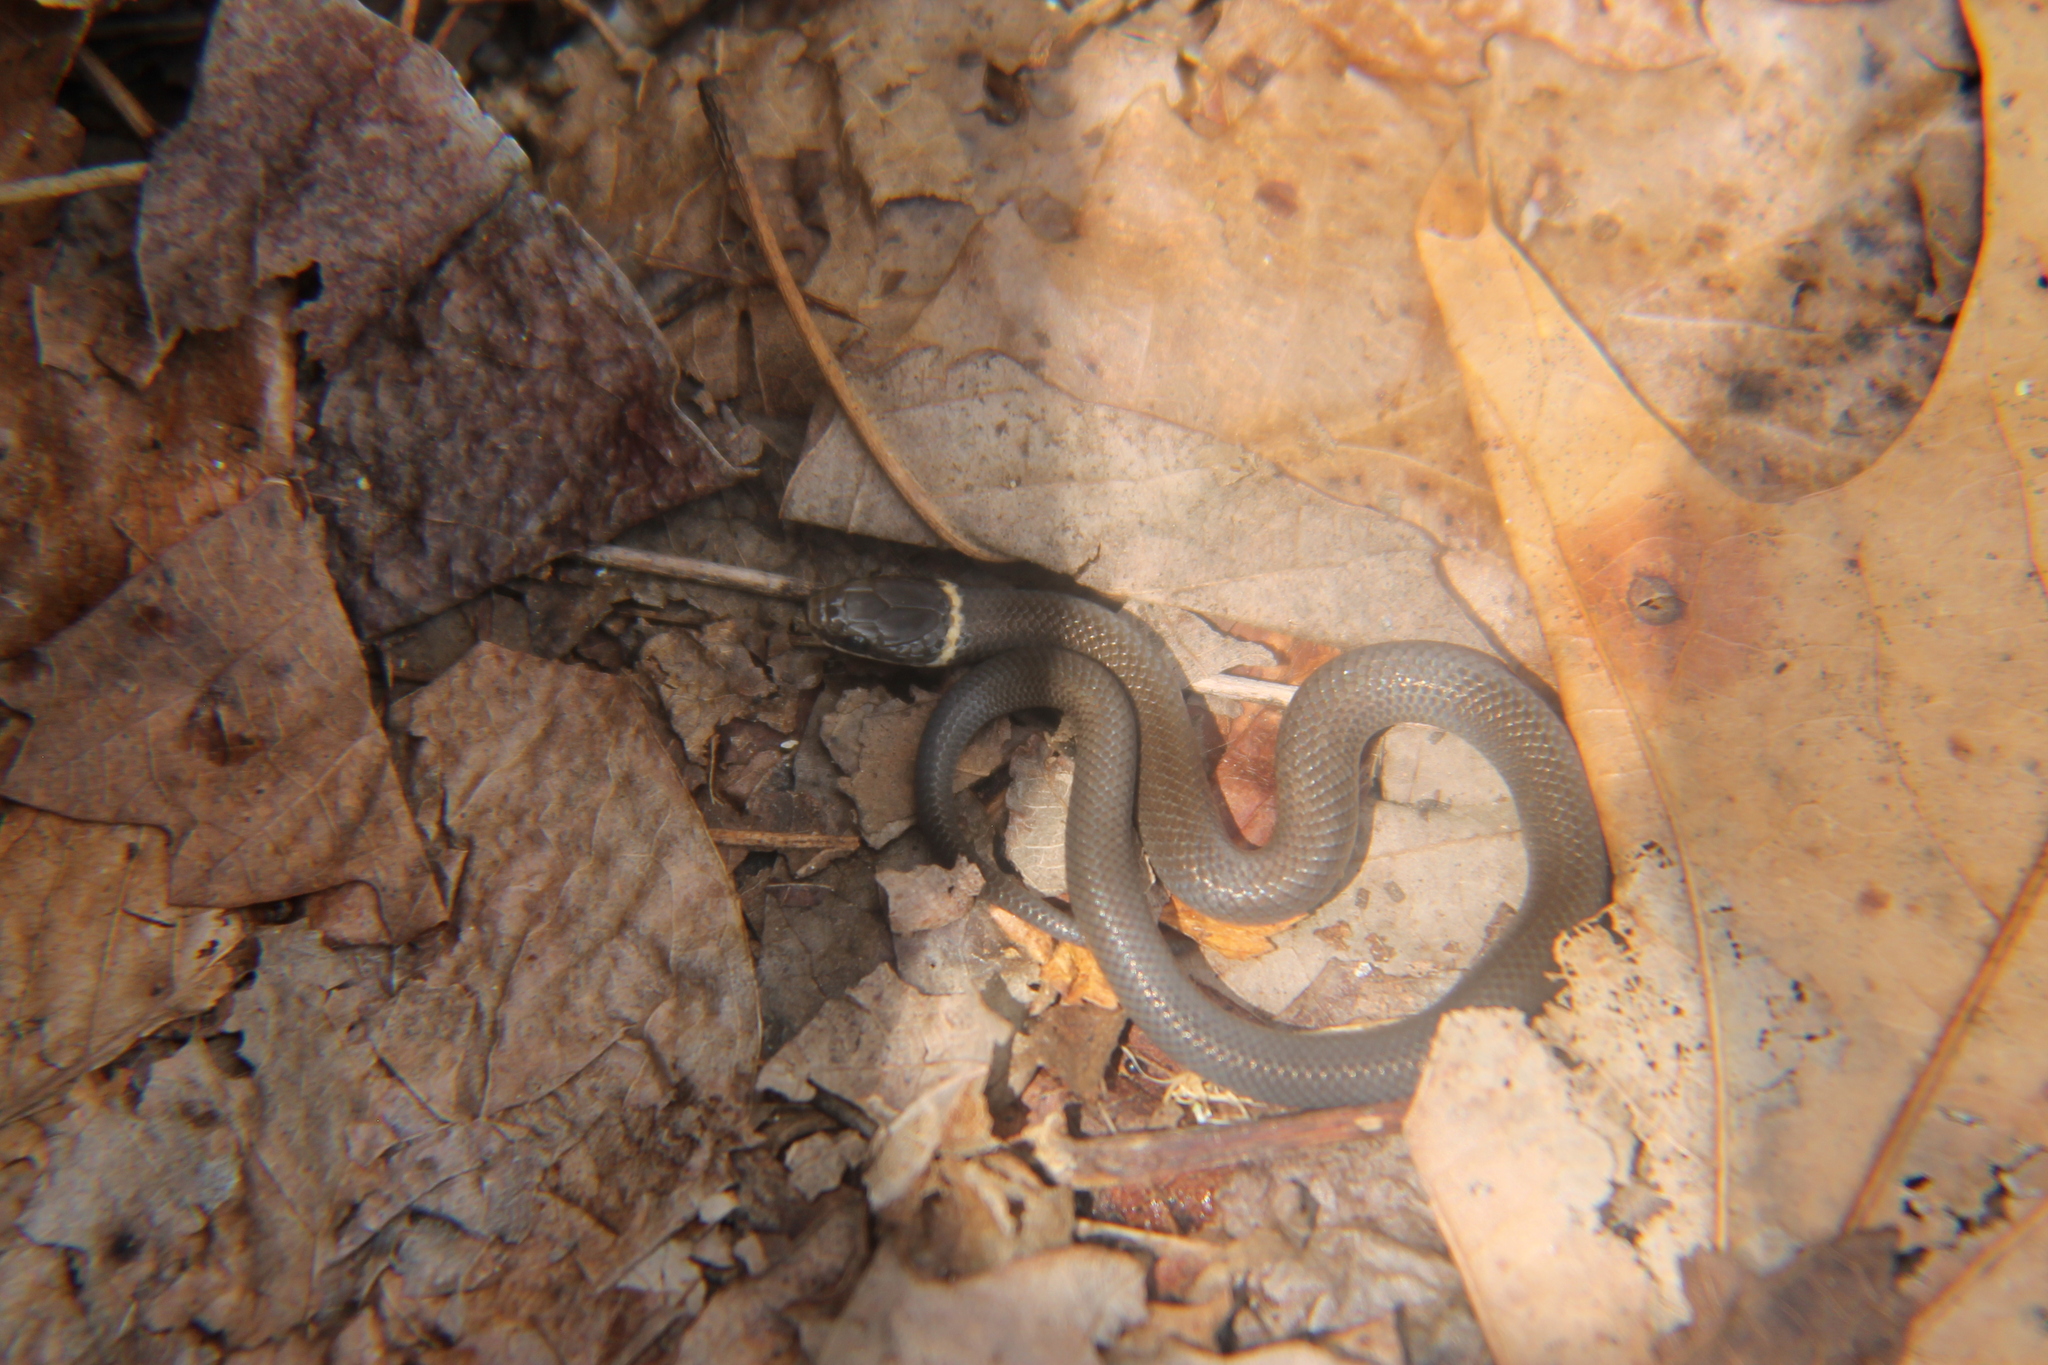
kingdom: Animalia
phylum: Chordata
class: Squamata
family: Colubridae
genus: Diadophis
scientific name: Diadophis punctatus
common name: Ringneck snake
